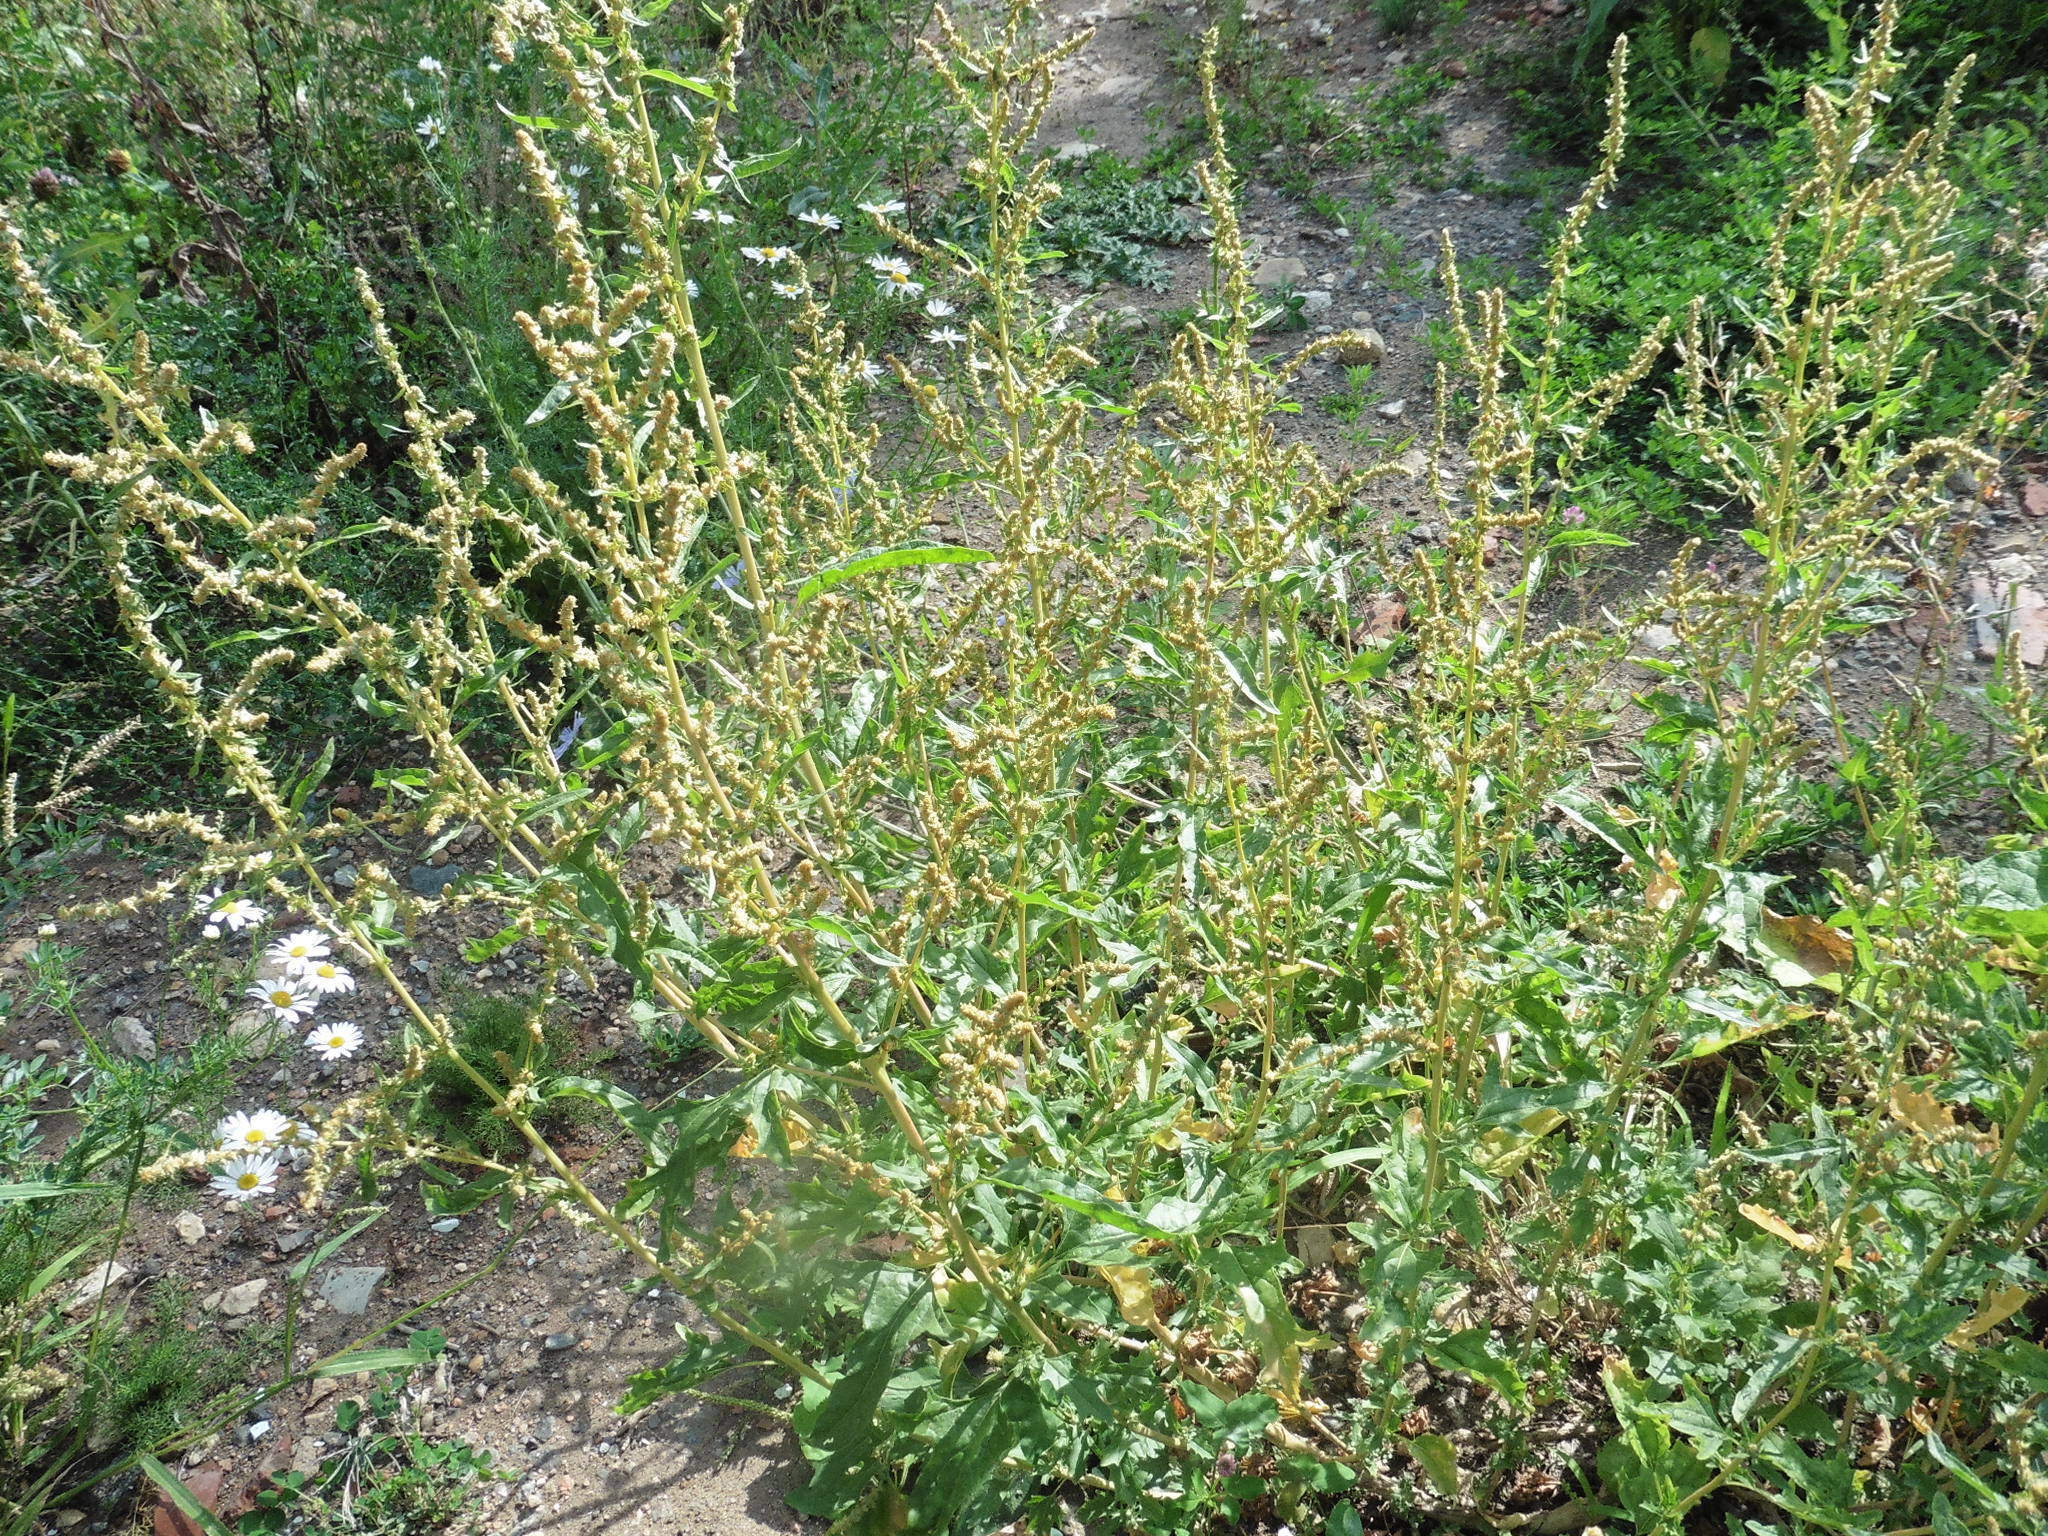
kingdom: Plantae
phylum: Tracheophyta
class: Magnoliopsida
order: Caryophyllales
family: Amaranthaceae
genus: Atriplex
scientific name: Atriplex tatarica
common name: Tatarian orache
